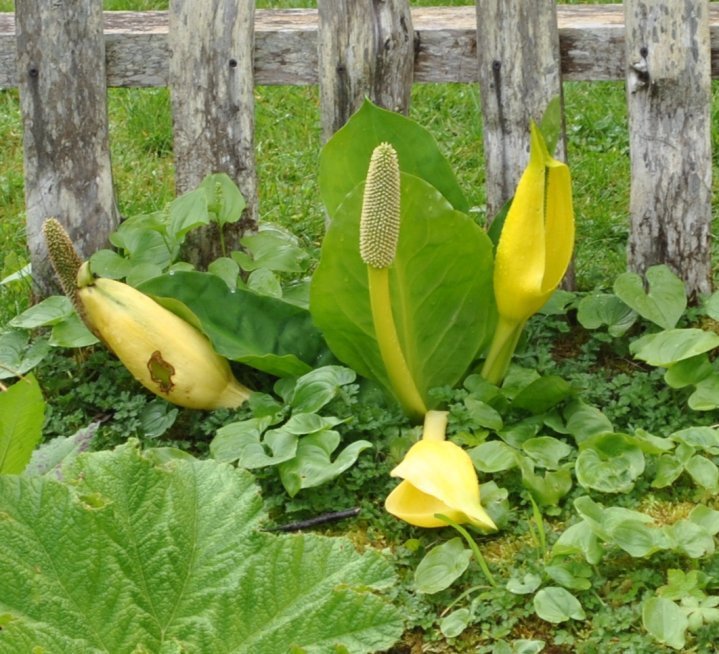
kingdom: Plantae
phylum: Tracheophyta
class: Liliopsida
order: Alismatales
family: Araceae
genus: Lysichiton
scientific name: Lysichiton americanus
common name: American skunk cabbage
